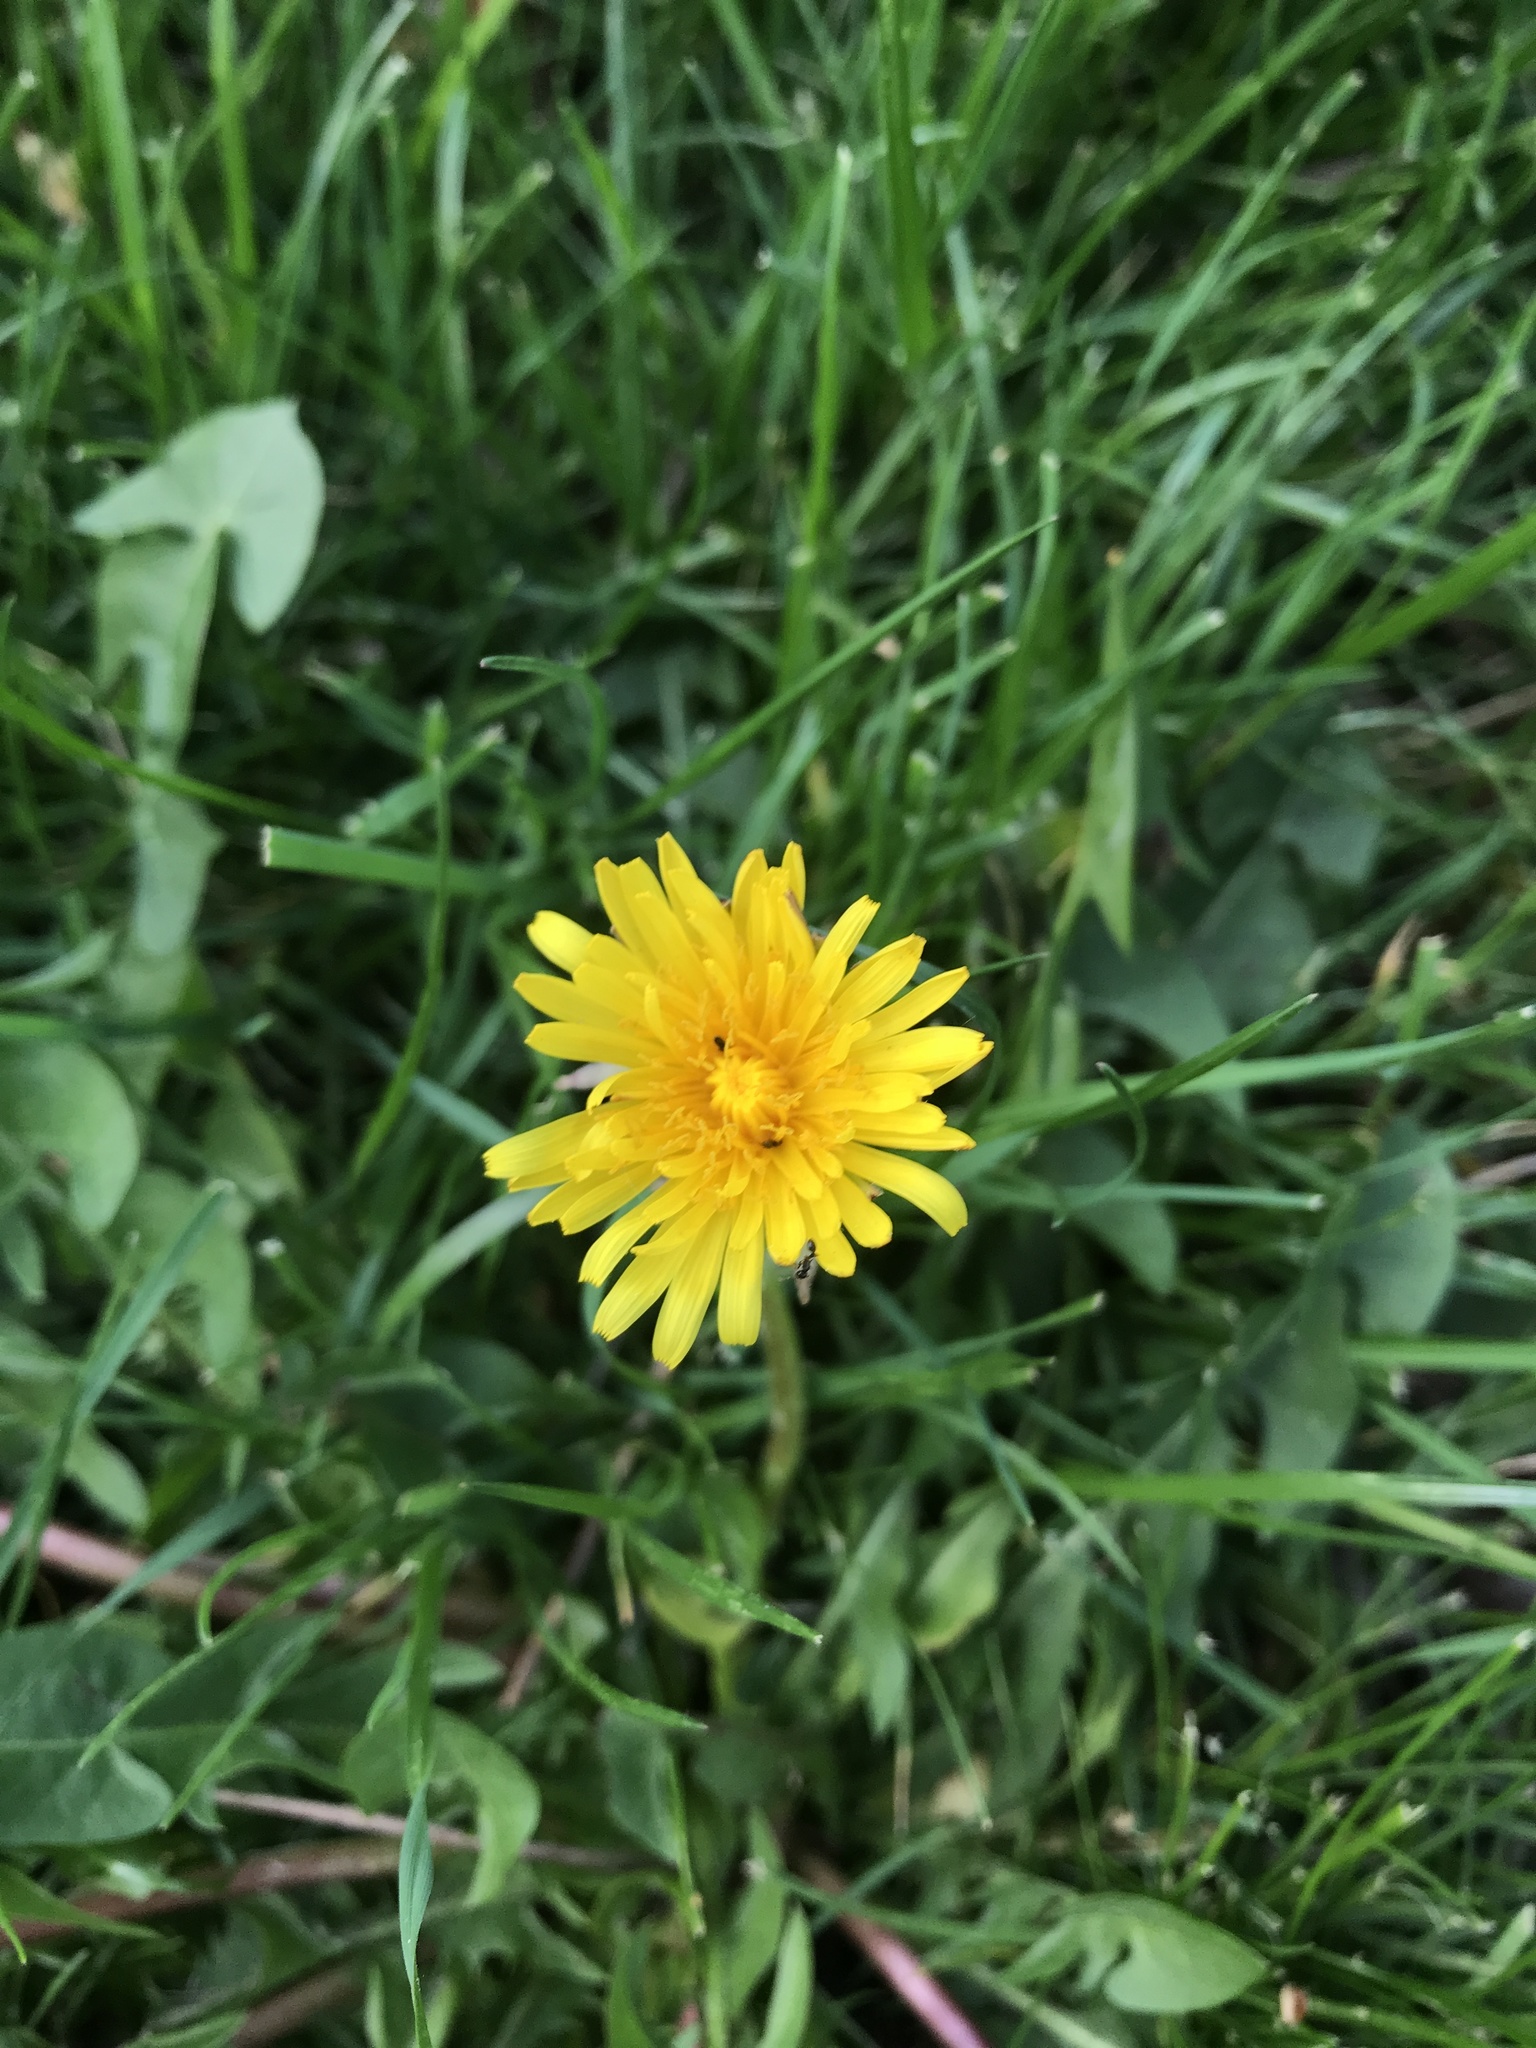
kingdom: Plantae
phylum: Tracheophyta
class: Magnoliopsida
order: Asterales
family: Asteraceae
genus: Taraxacum
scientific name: Taraxacum officinale
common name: Common dandelion
